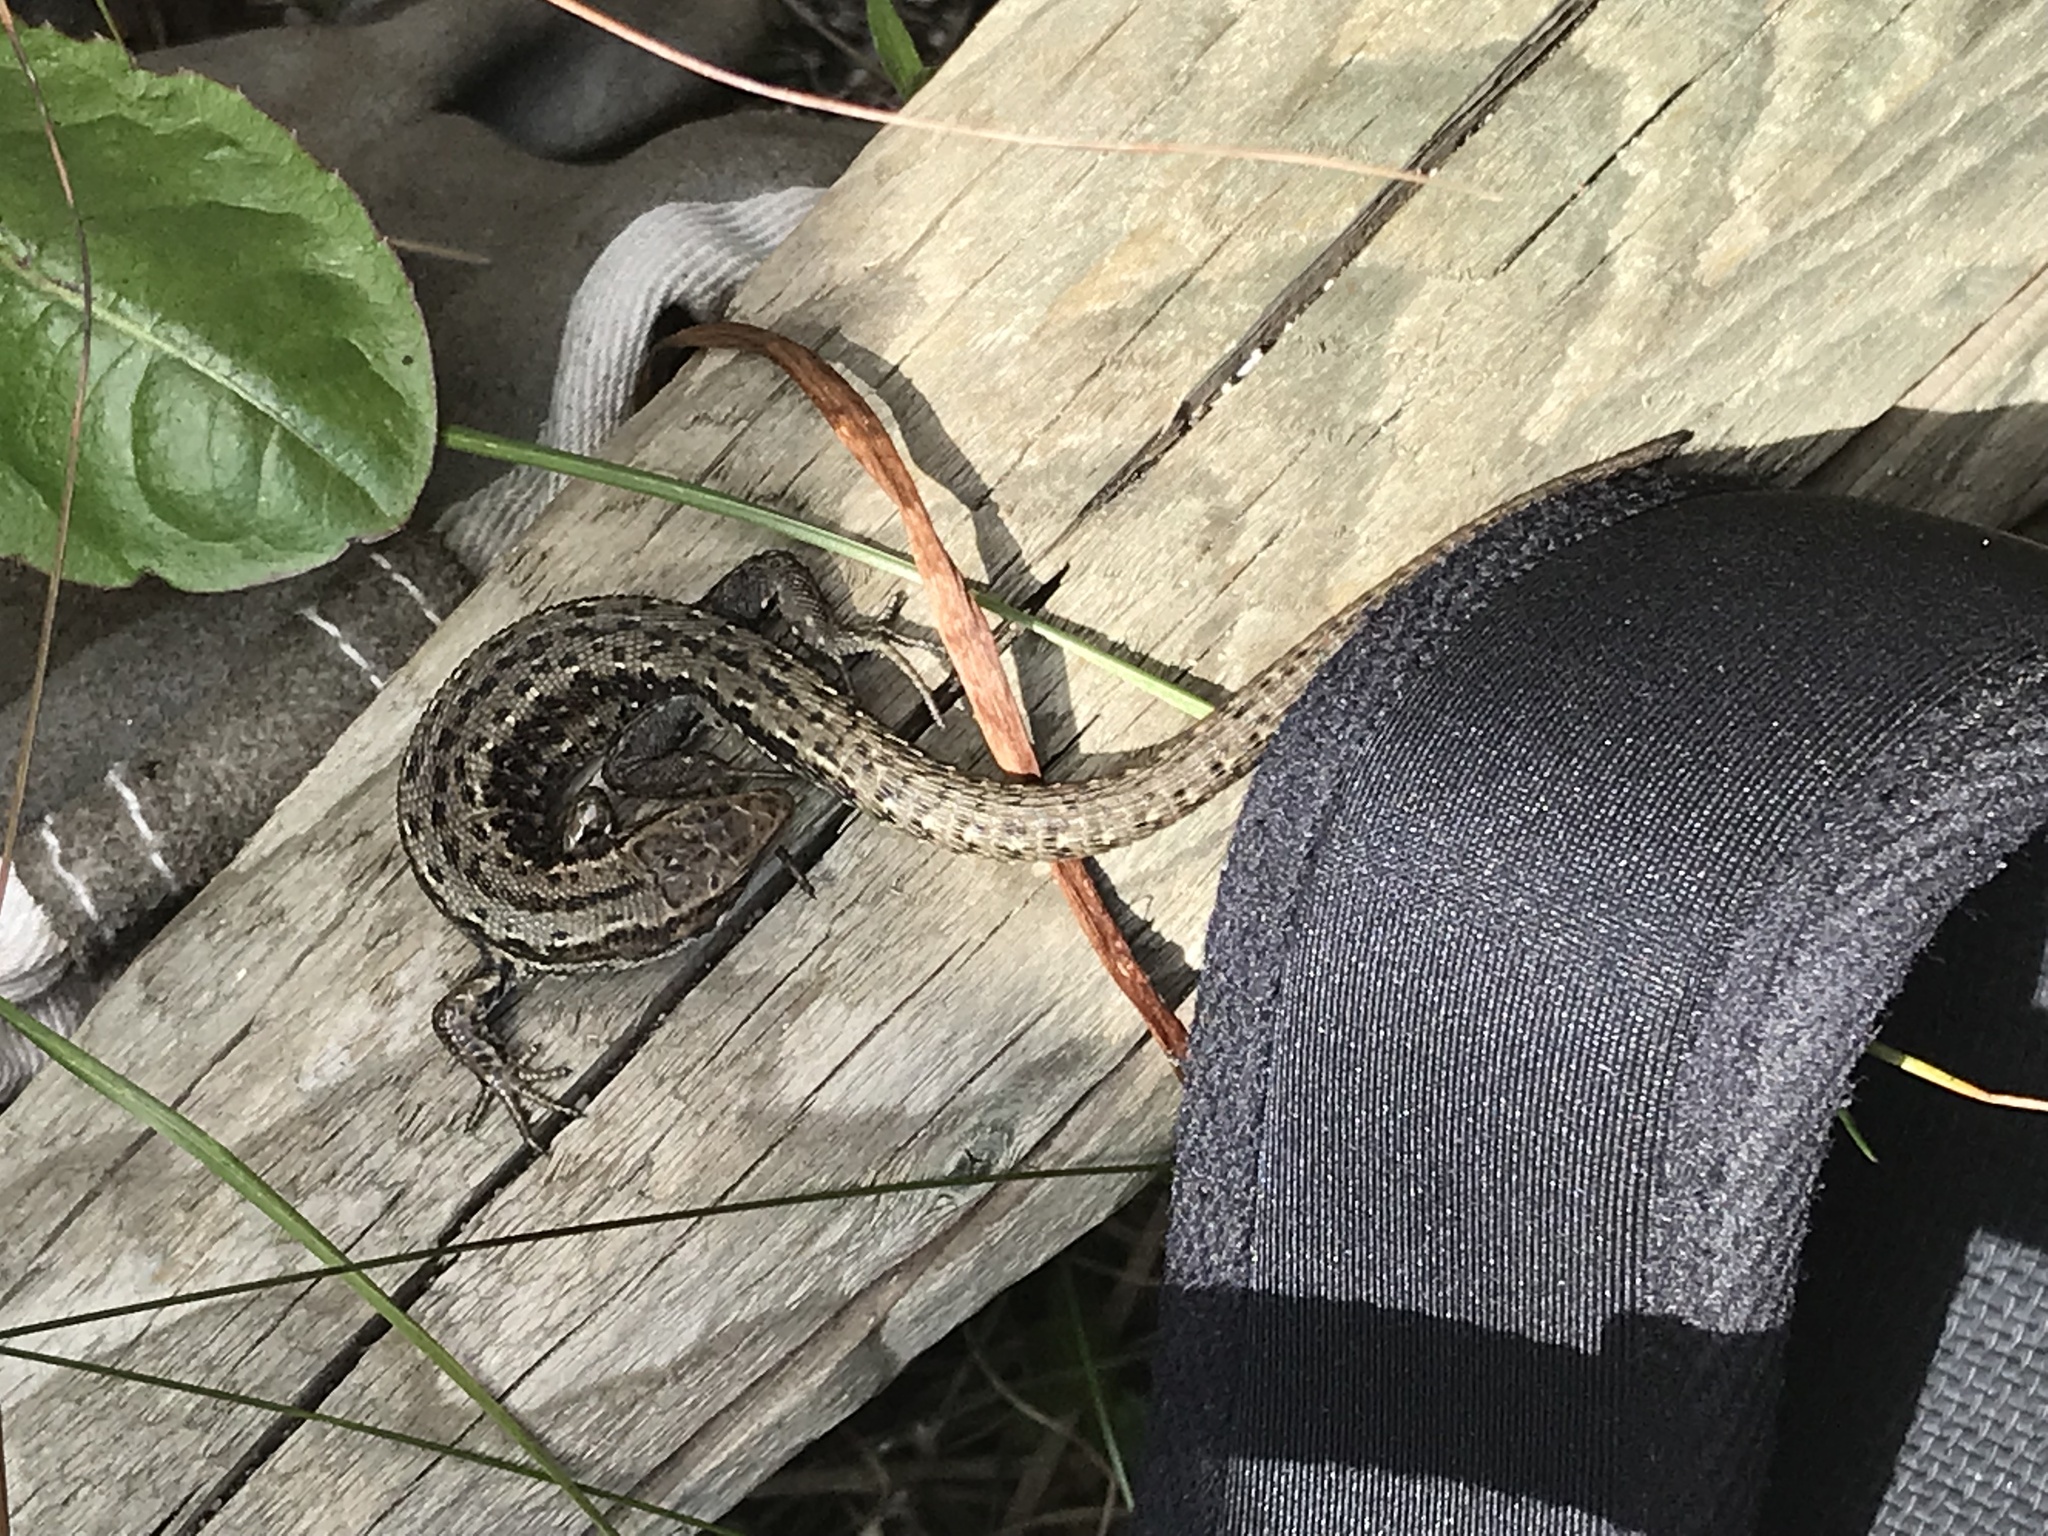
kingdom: Animalia
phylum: Chordata
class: Squamata
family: Lacertidae
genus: Zootoca
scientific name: Zootoca vivipara
